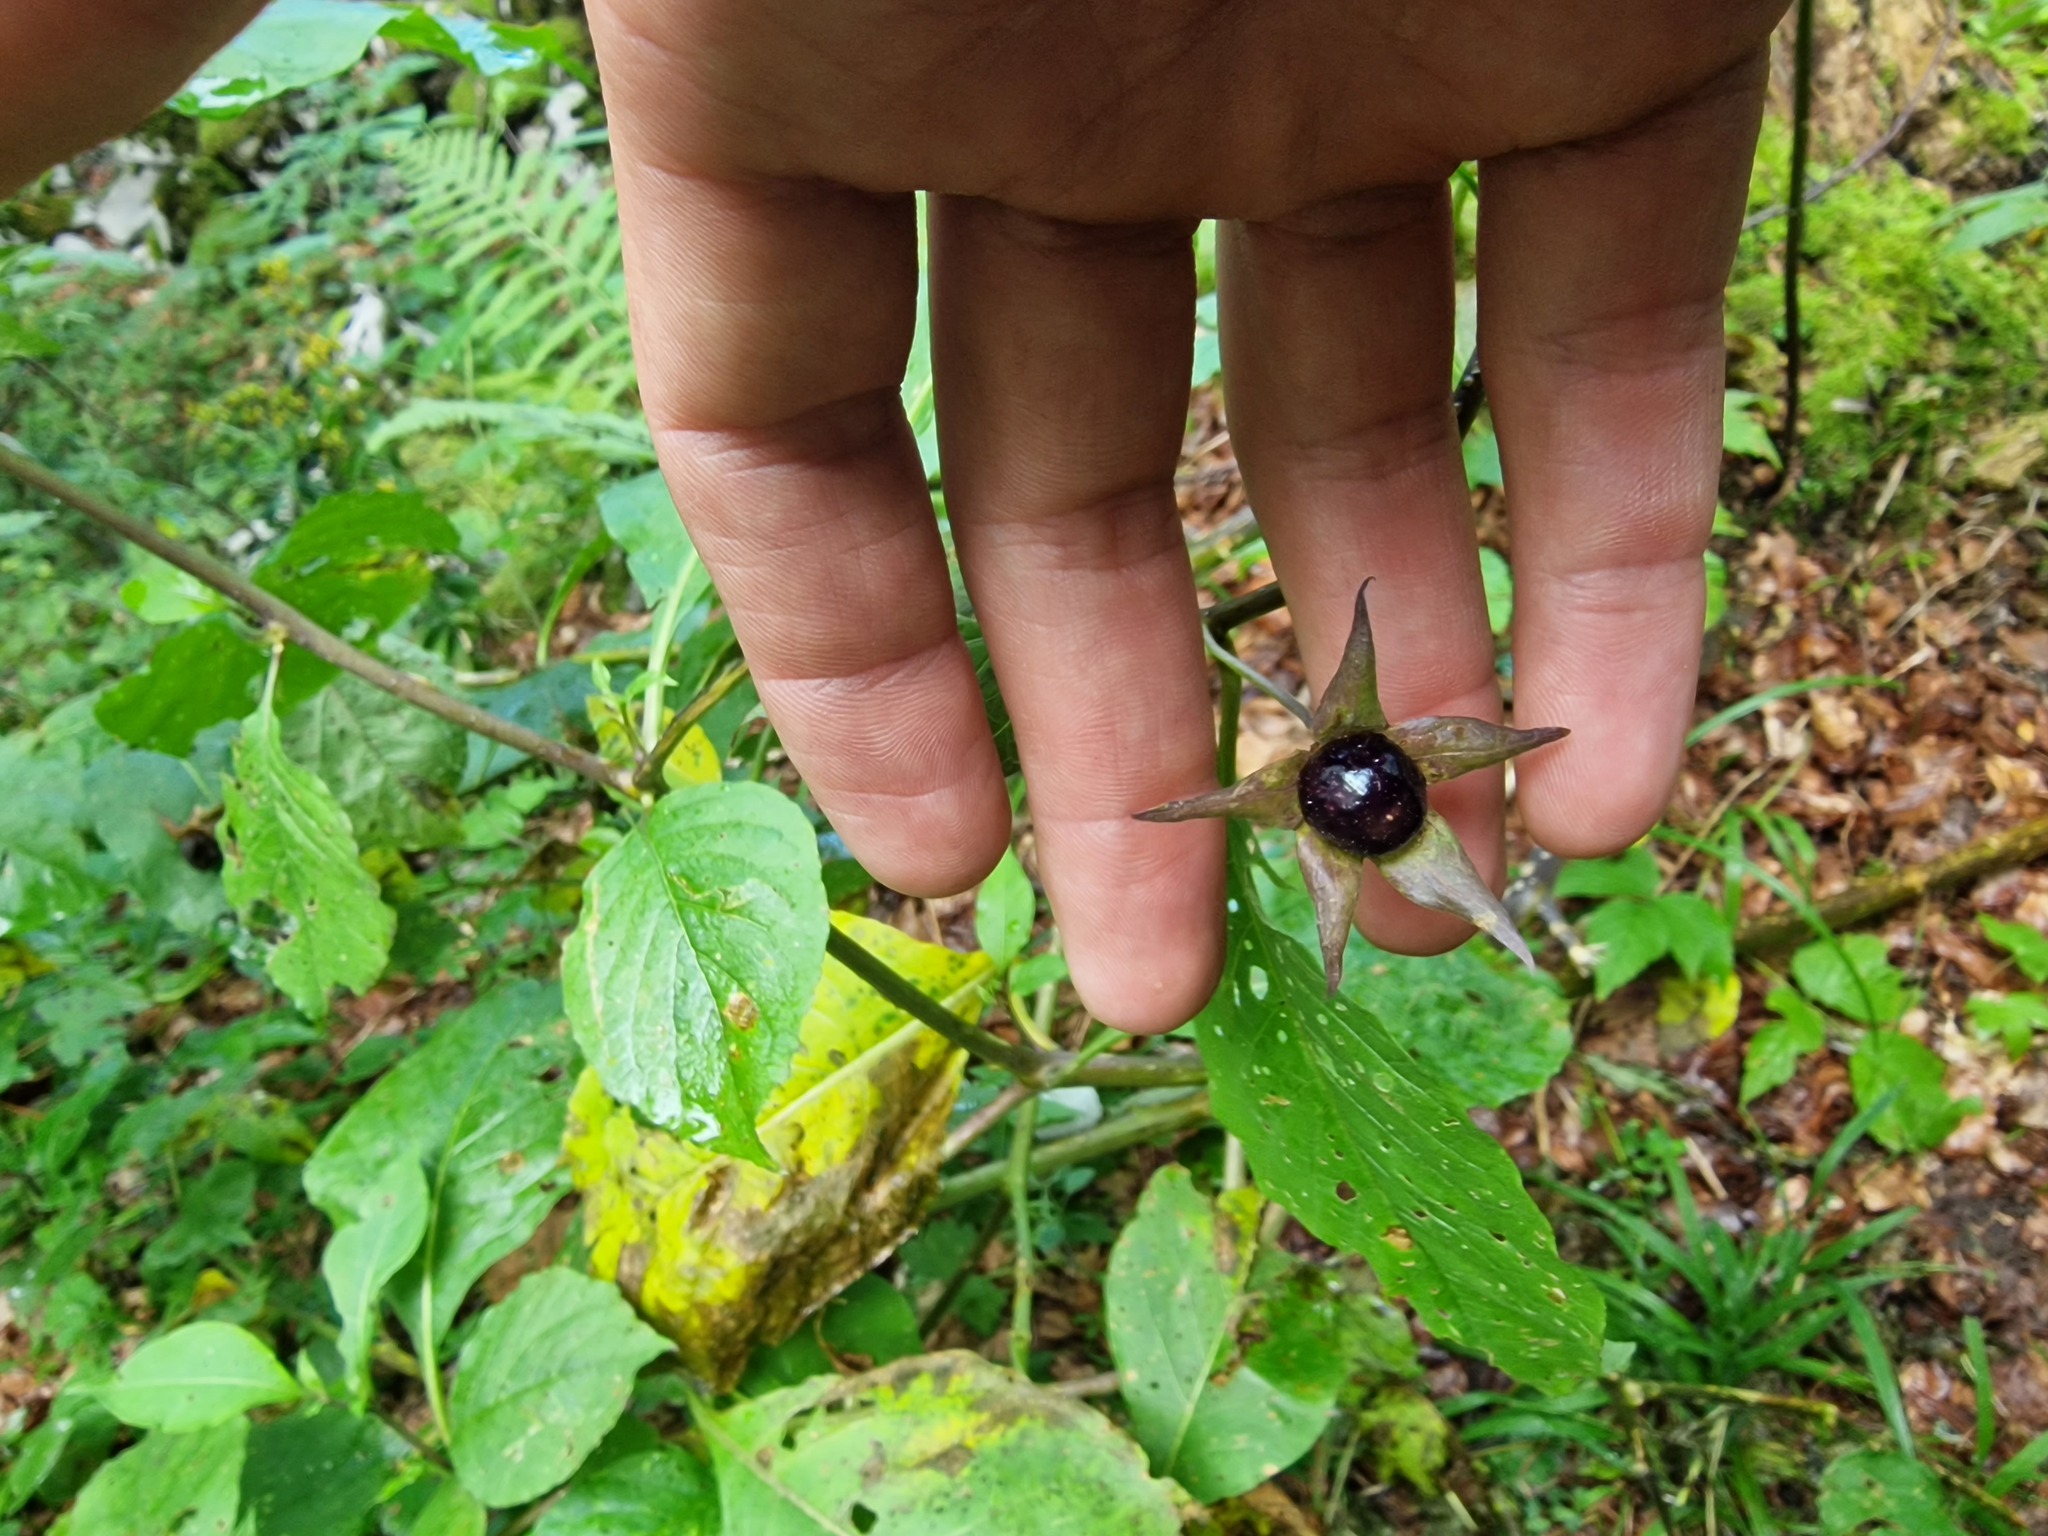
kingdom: Plantae
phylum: Tracheophyta
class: Magnoliopsida
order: Solanales
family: Solanaceae
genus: Atropa
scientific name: Atropa belladonna
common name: Deadly nightshade
